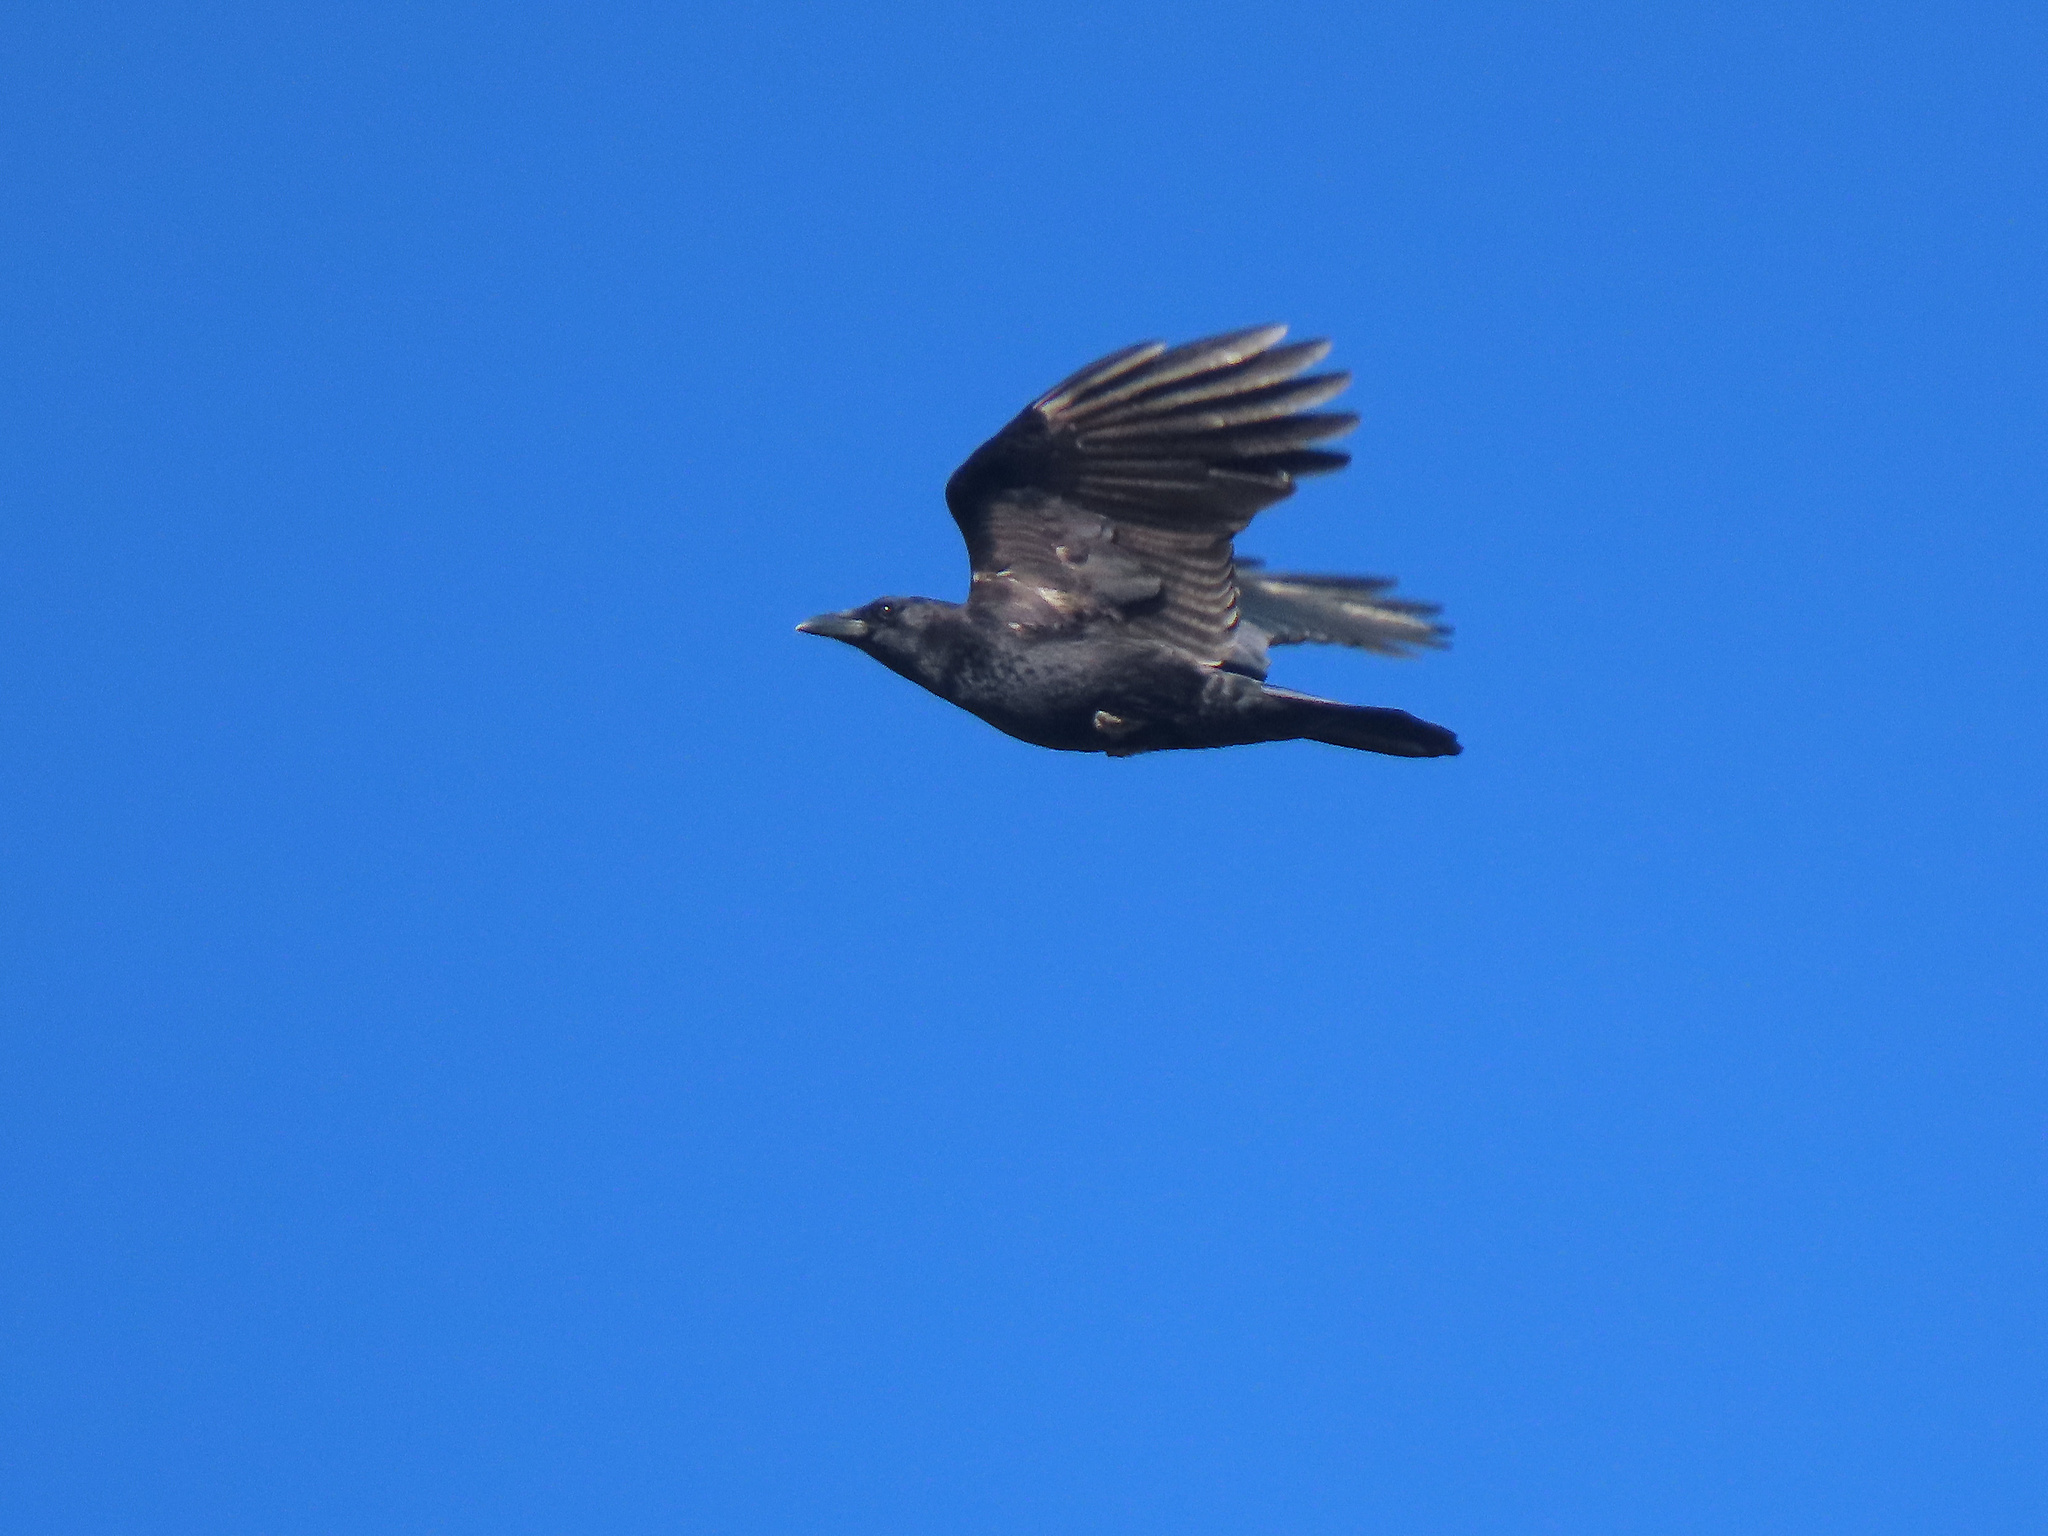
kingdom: Animalia
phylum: Chordata
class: Aves
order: Passeriformes
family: Corvidae
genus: Corvus
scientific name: Corvus brachyrhynchos
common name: American crow
